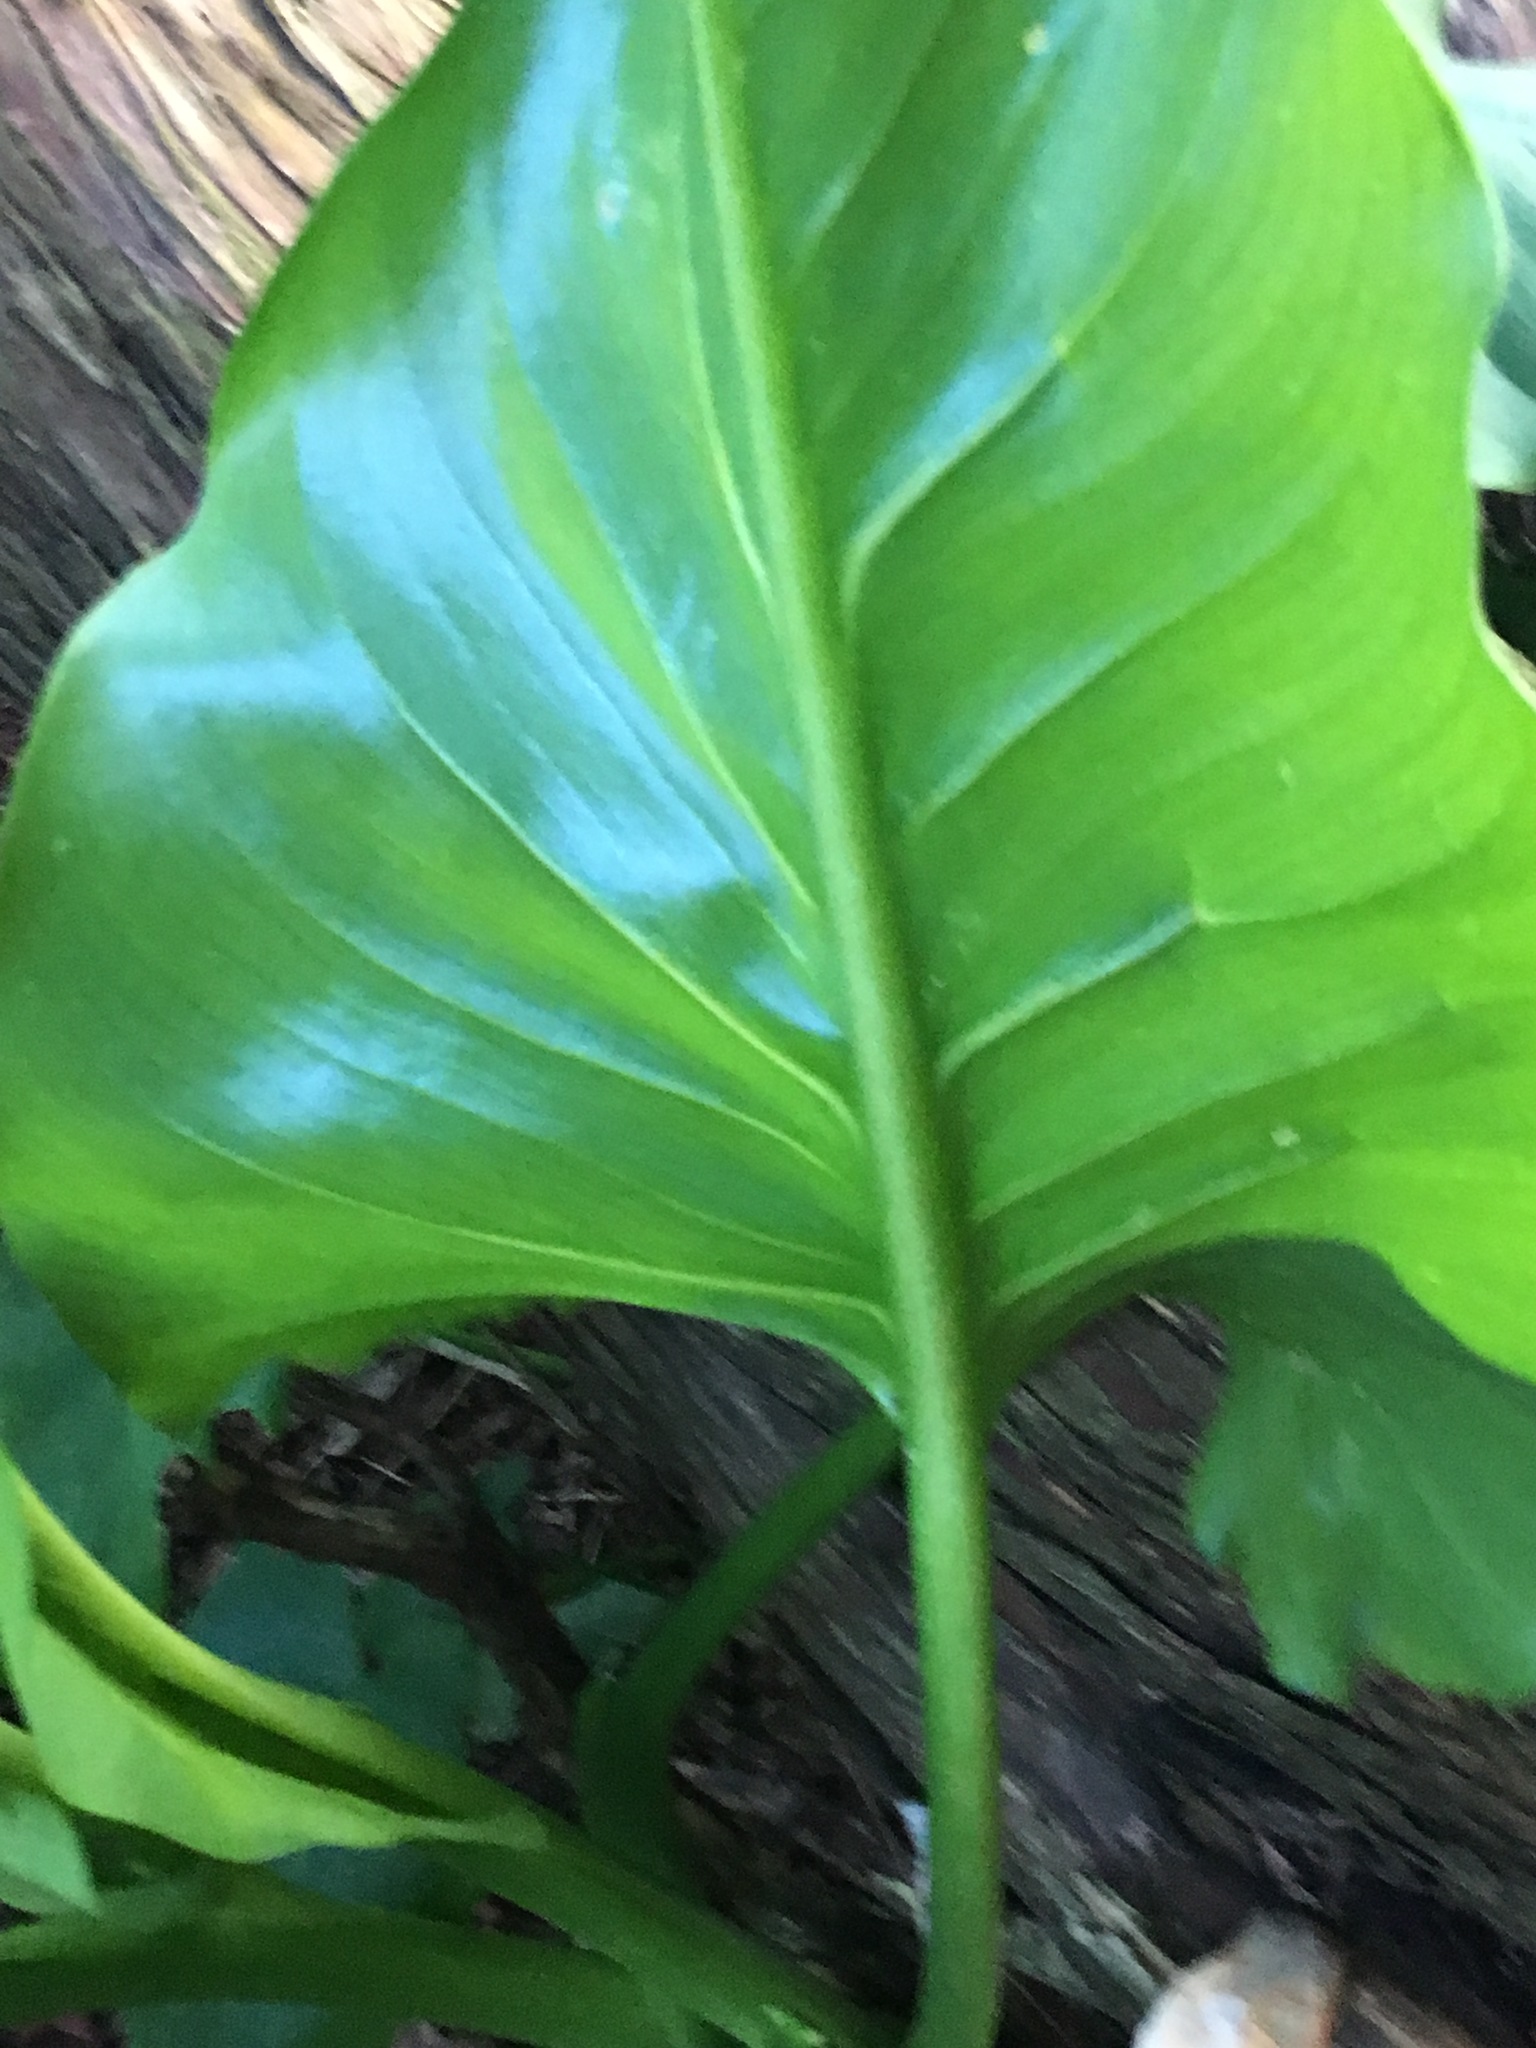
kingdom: Plantae
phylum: Tracheophyta
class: Liliopsida
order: Alismatales
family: Araceae
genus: Zantedeschia
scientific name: Zantedeschia aethiopica
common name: Altar-lily
